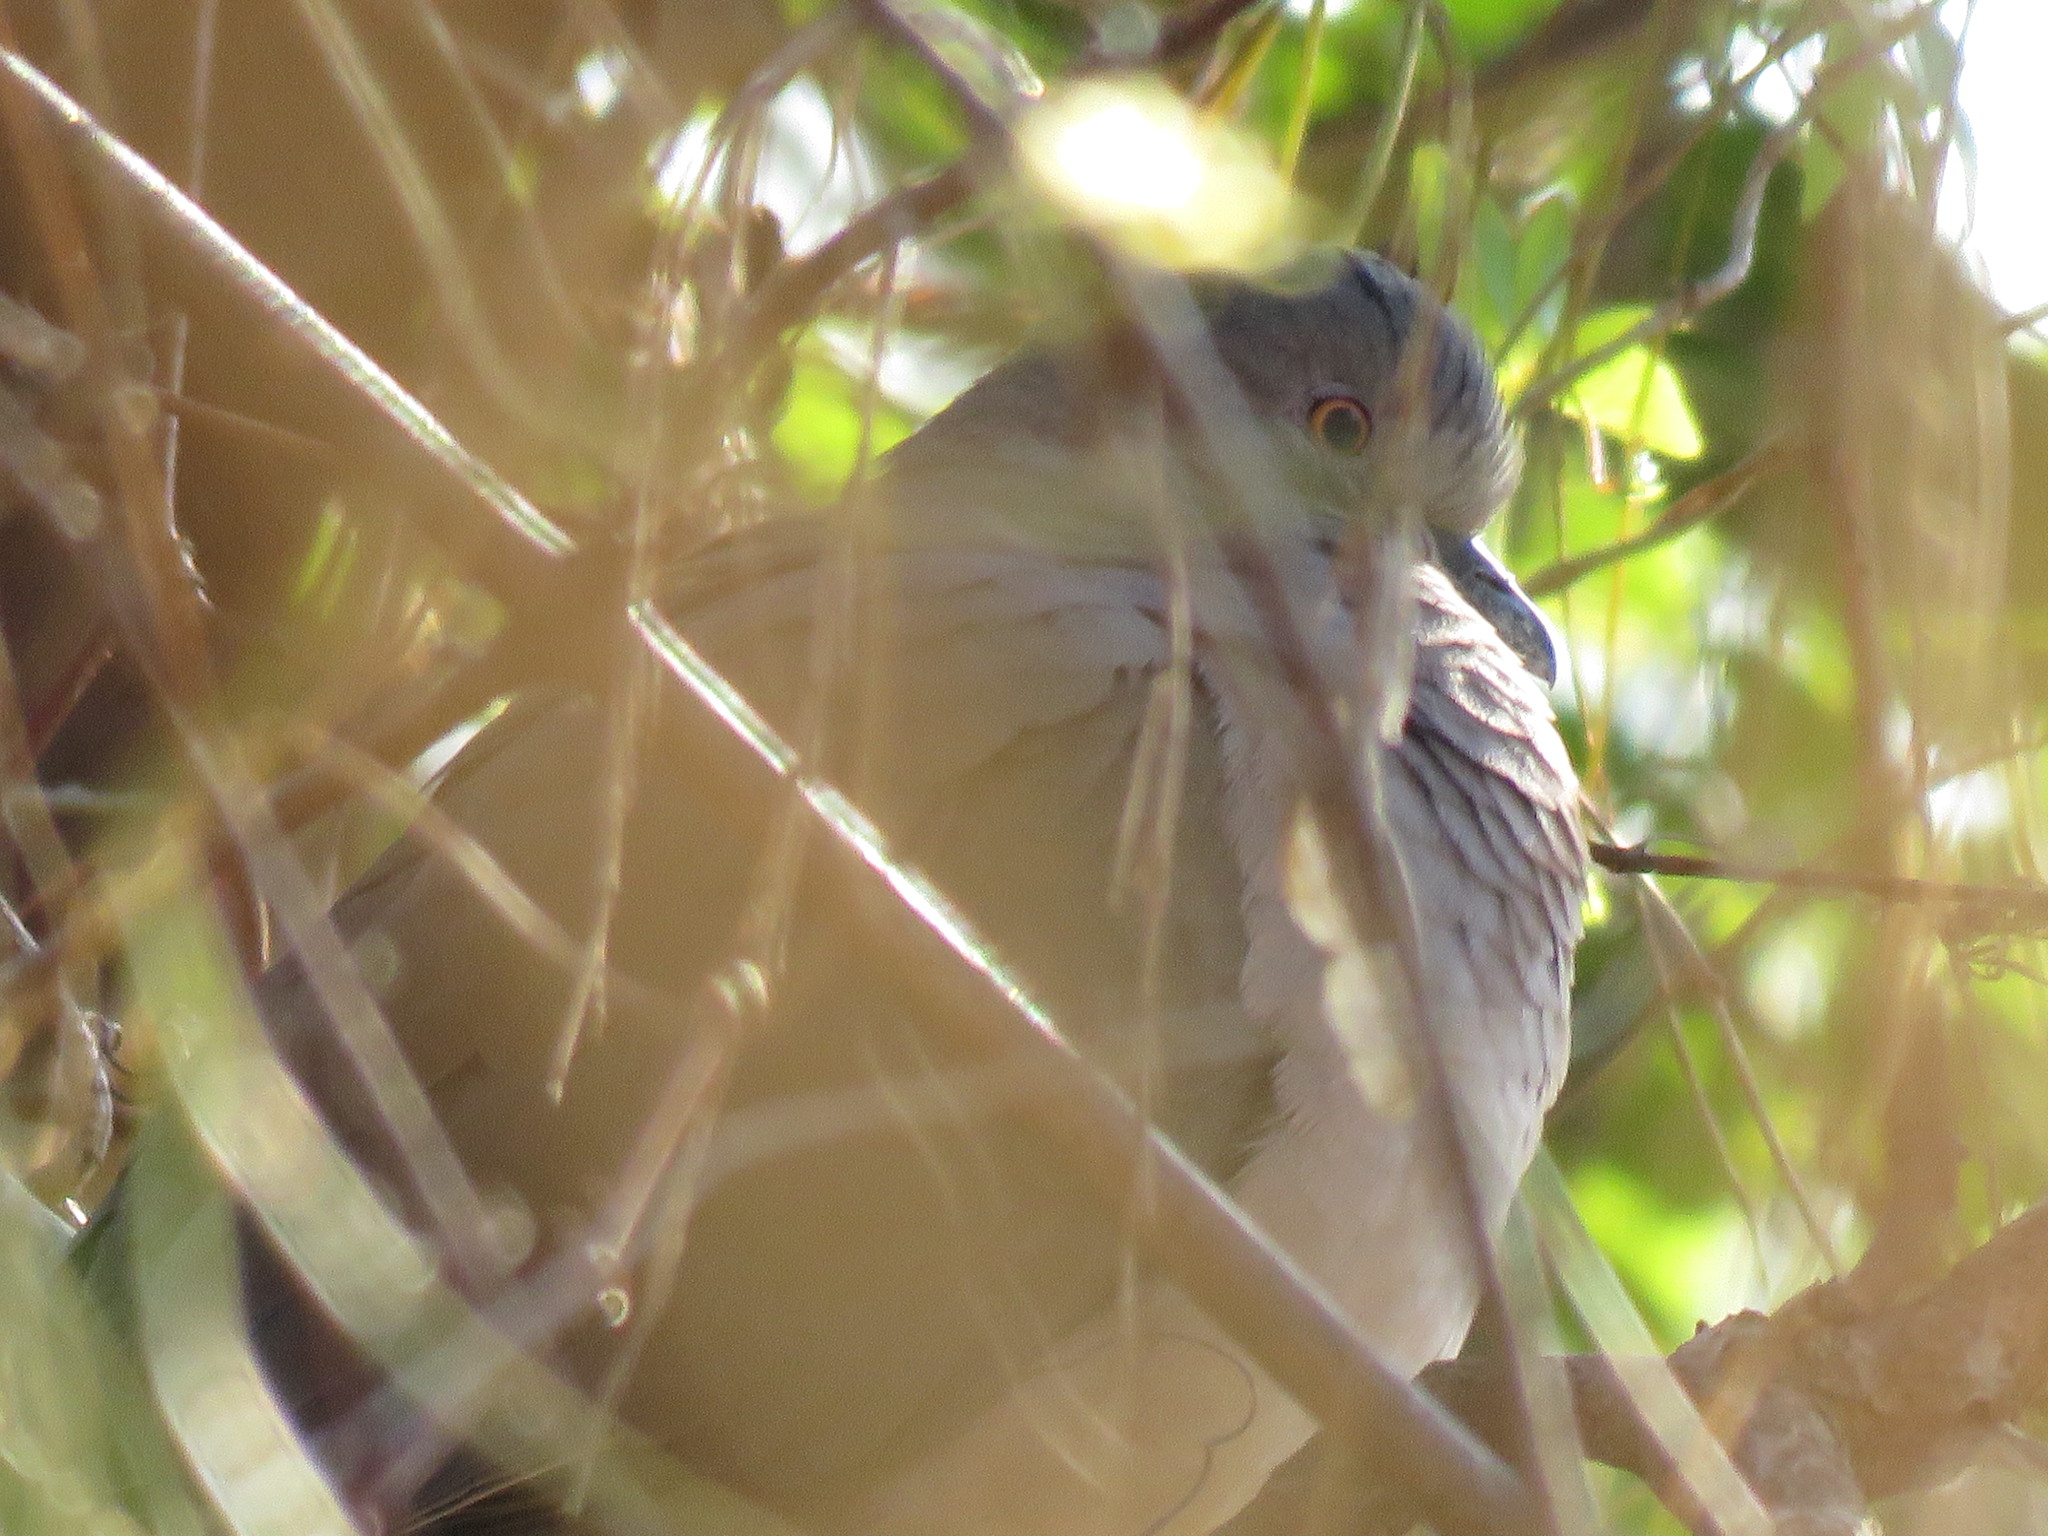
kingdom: Animalia
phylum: Chordata
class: Aves
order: Columbiformes
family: Columbidae
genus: Leptotila
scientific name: Leptotila verreauxi
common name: White-tipped dove
